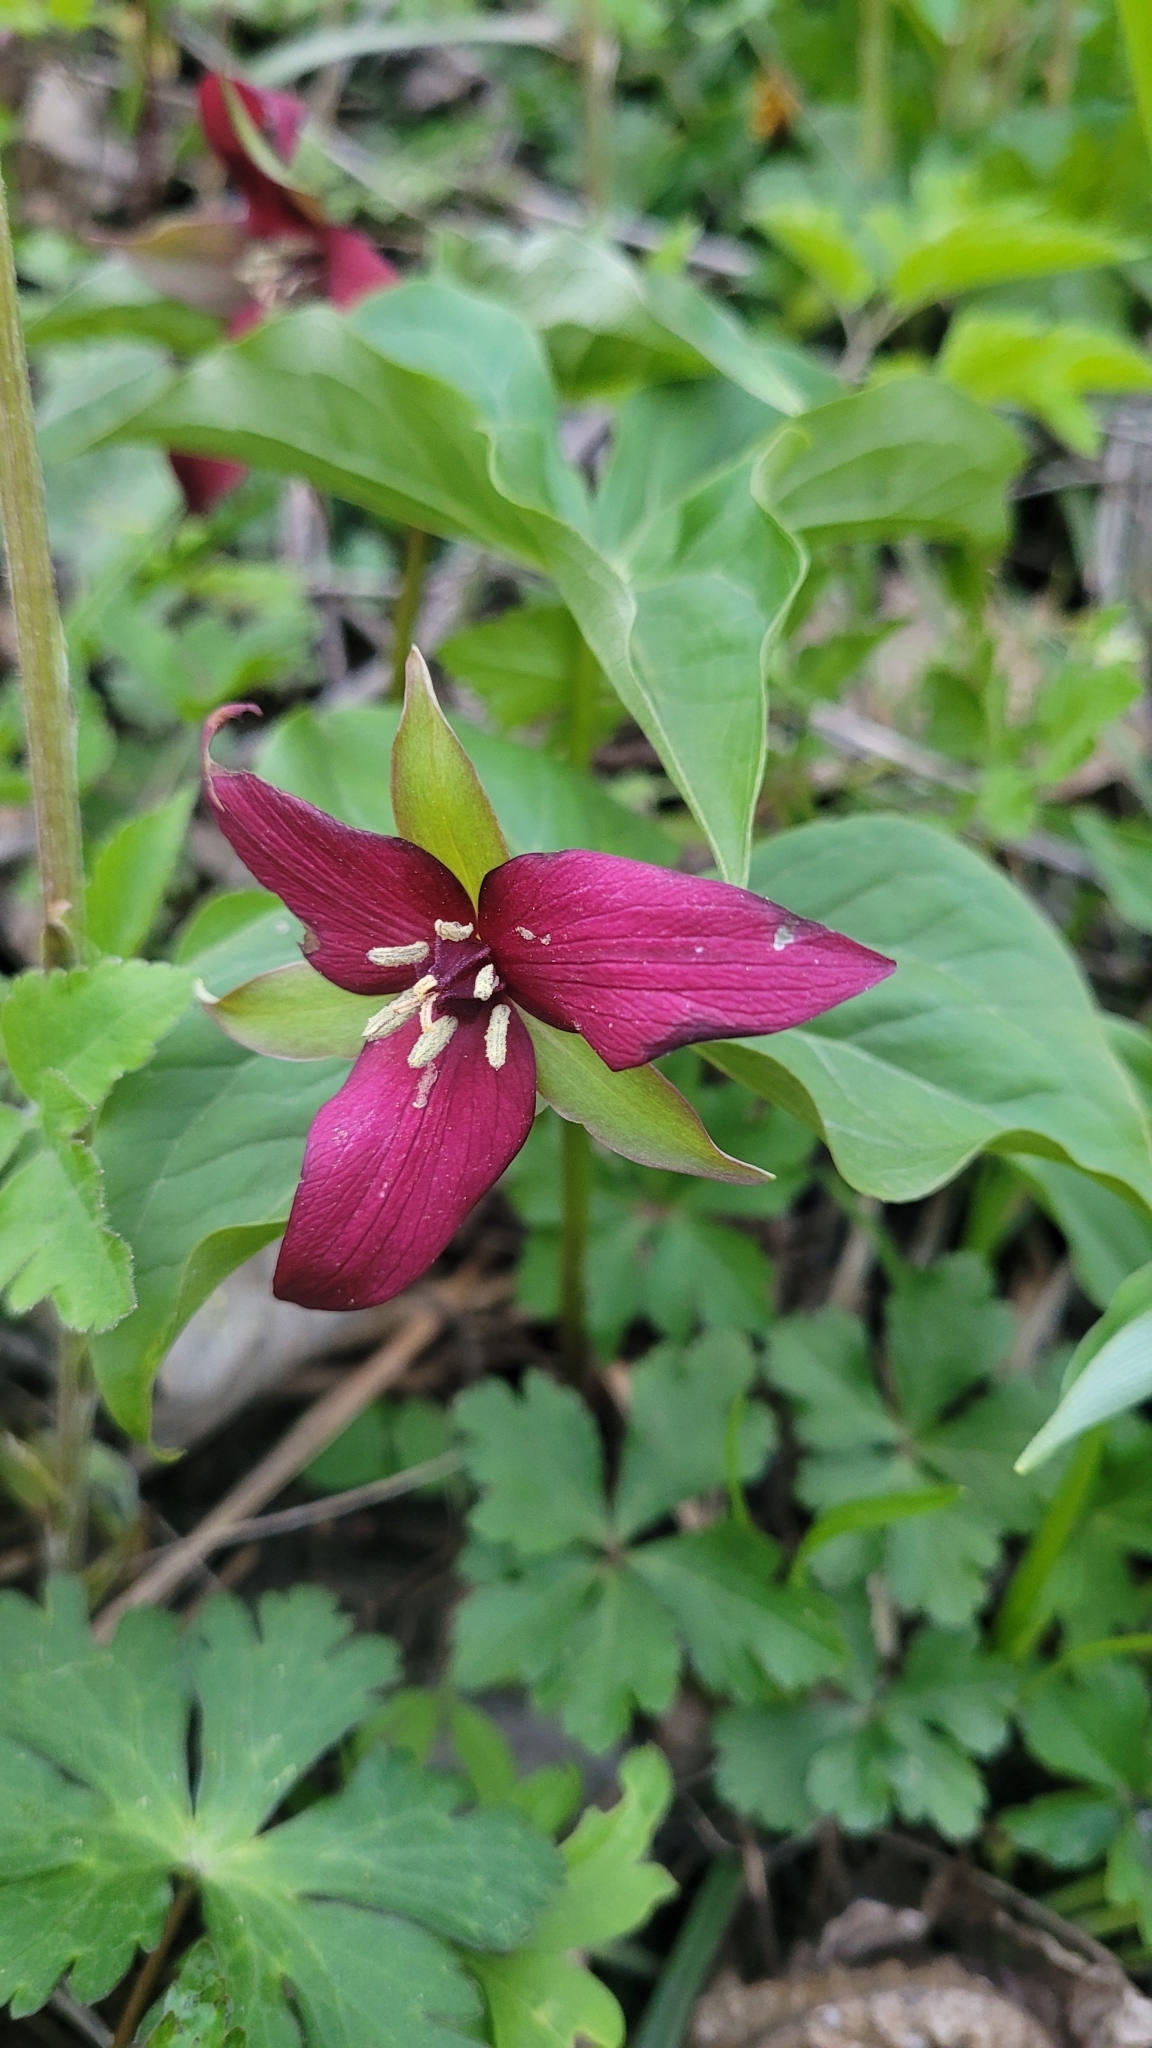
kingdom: Plantae
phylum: Tracheophyta
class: Liliopsida
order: Liliales
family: Melanthiaceae
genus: Trillium
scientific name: Trillium erectum
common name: Purple trillium
